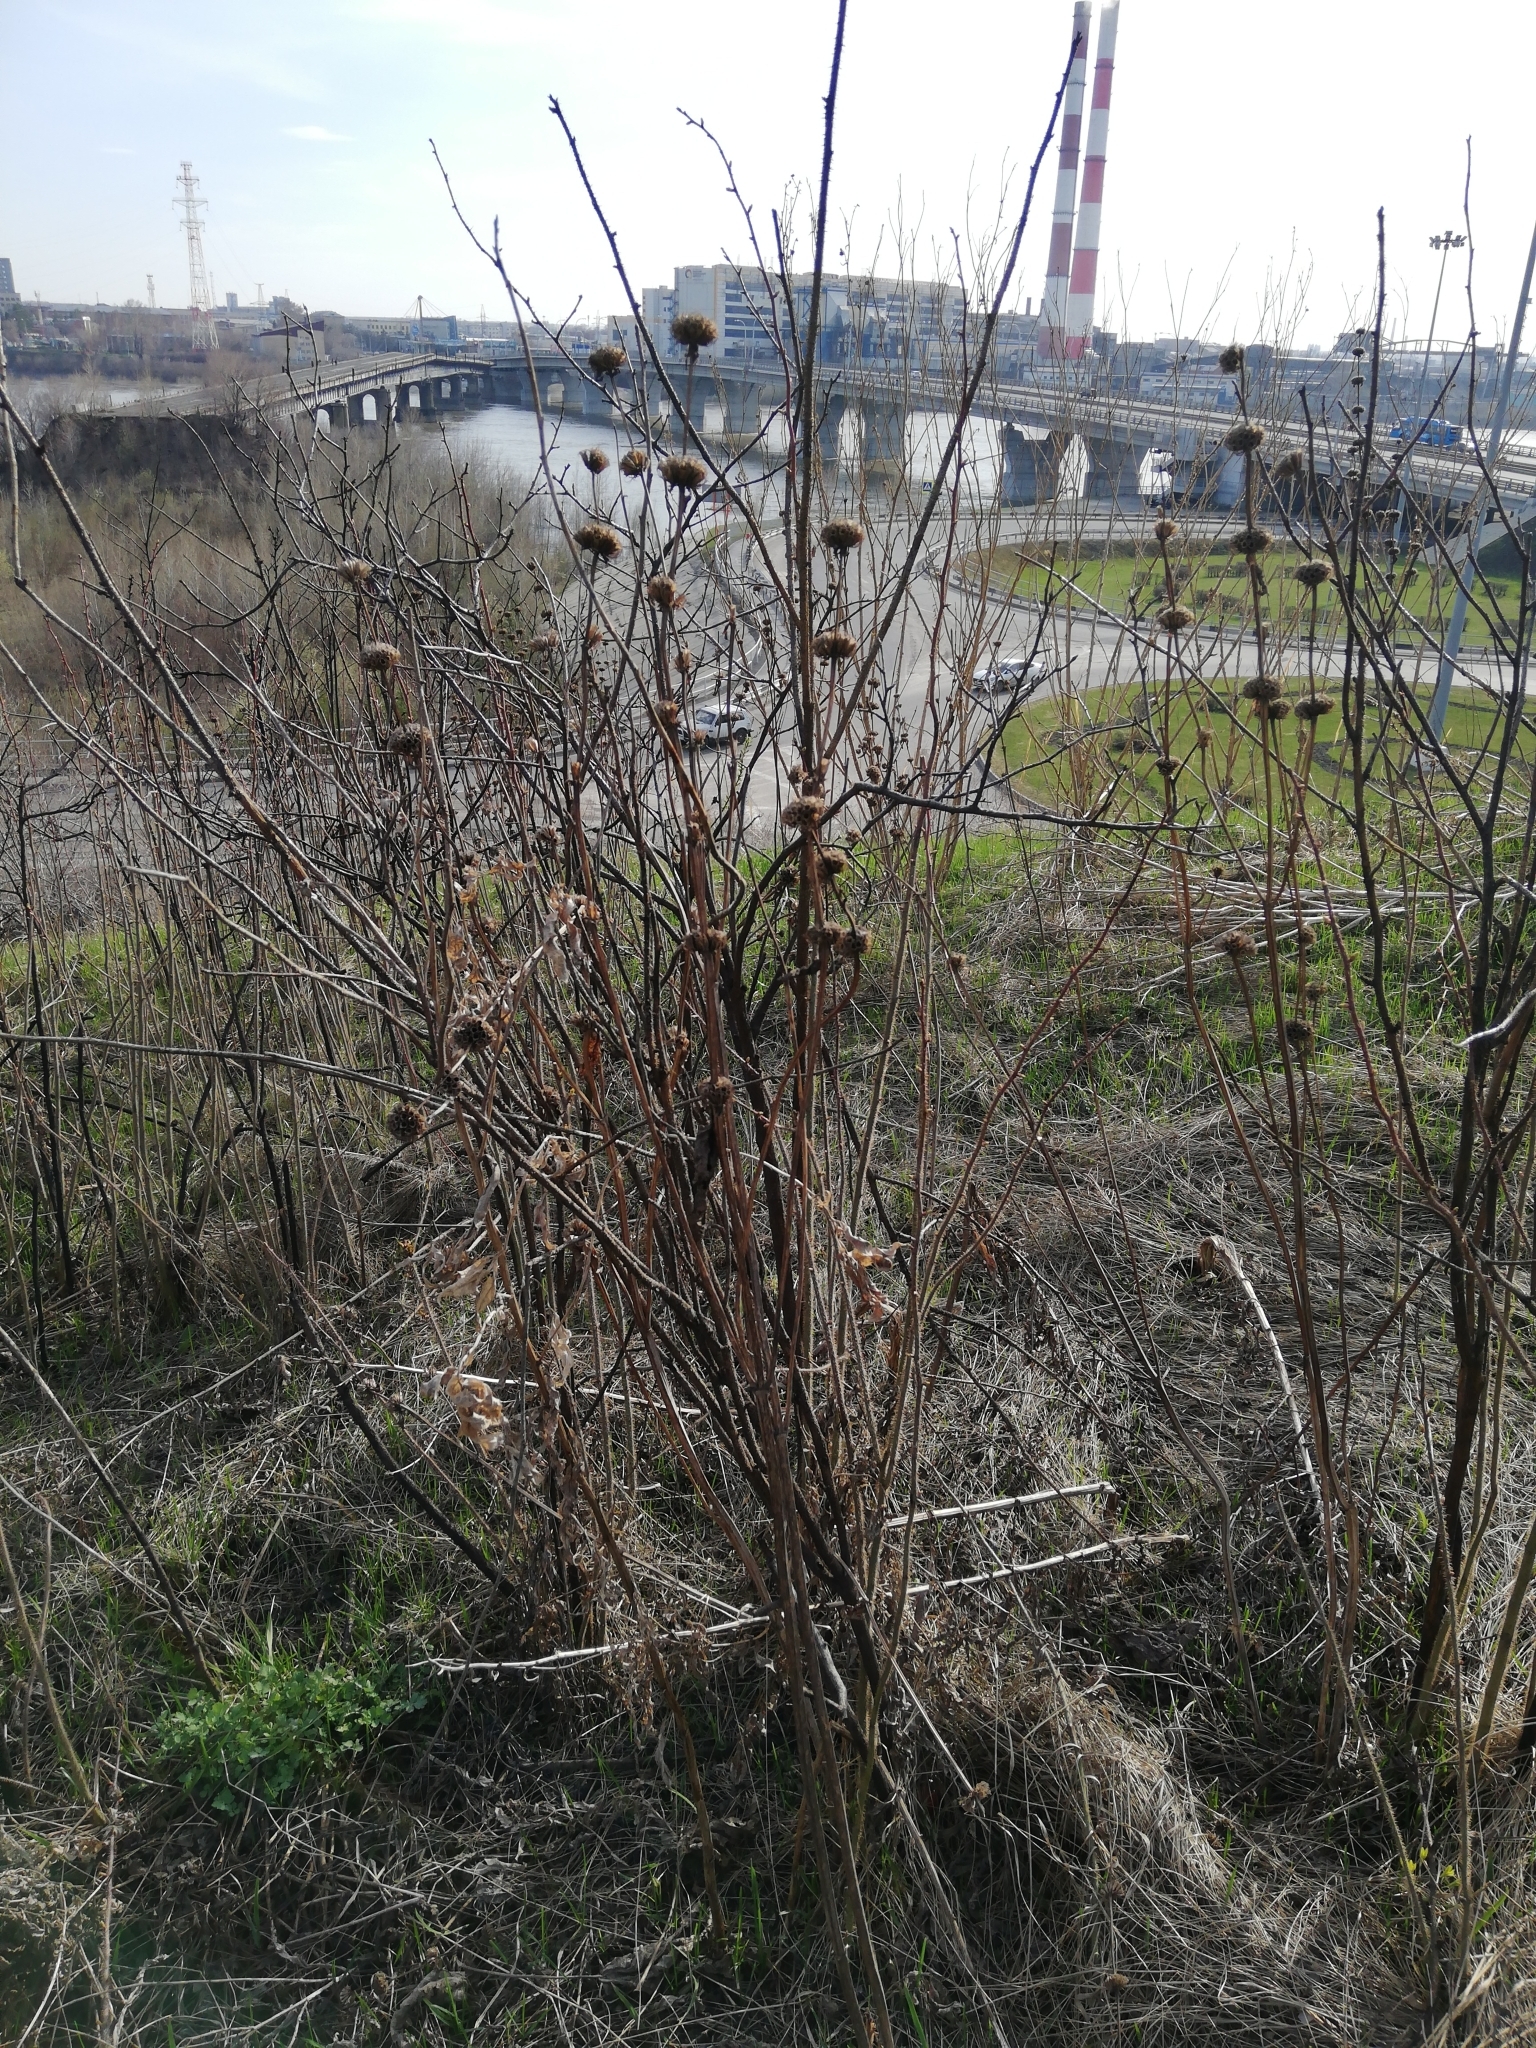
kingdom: Plantae
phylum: Tracheophyta
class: Magnoliopsida
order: Lamiales
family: Lamiaceae
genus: Phlomoides
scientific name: Phlomoides tuberosa
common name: Tuberous jerusalem sage
